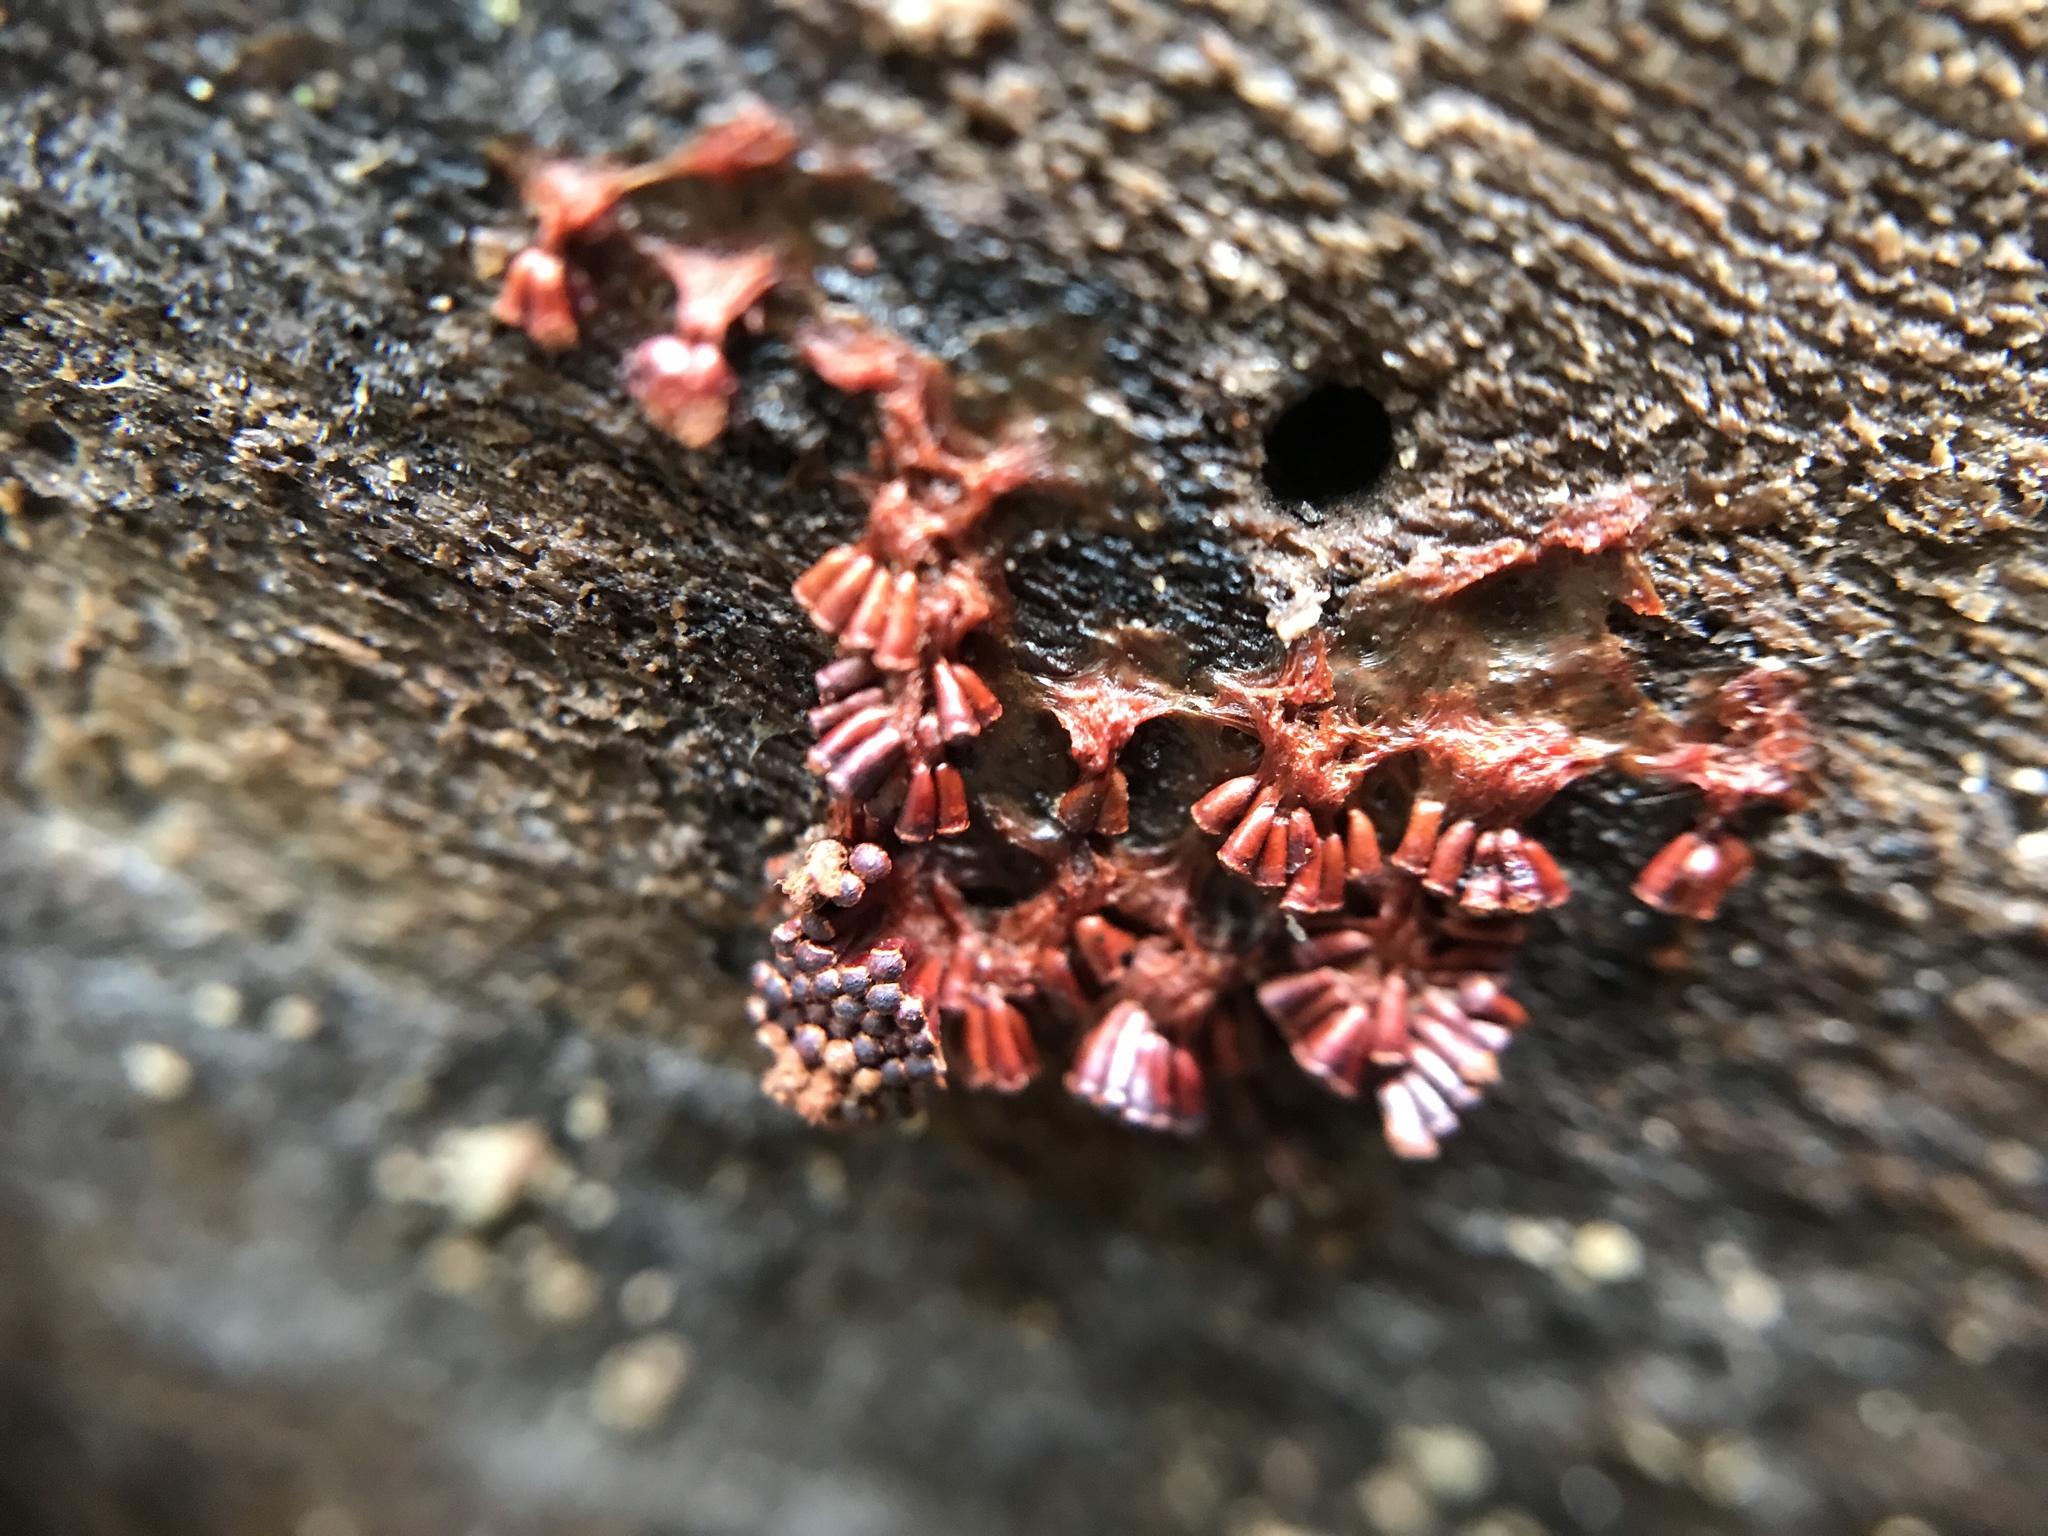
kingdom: Protozoa
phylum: Mycetozoa
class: Myxomycetes
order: Trichiales
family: Trichiaceae
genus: Metatrichia
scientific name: Metatrichia vesparia
